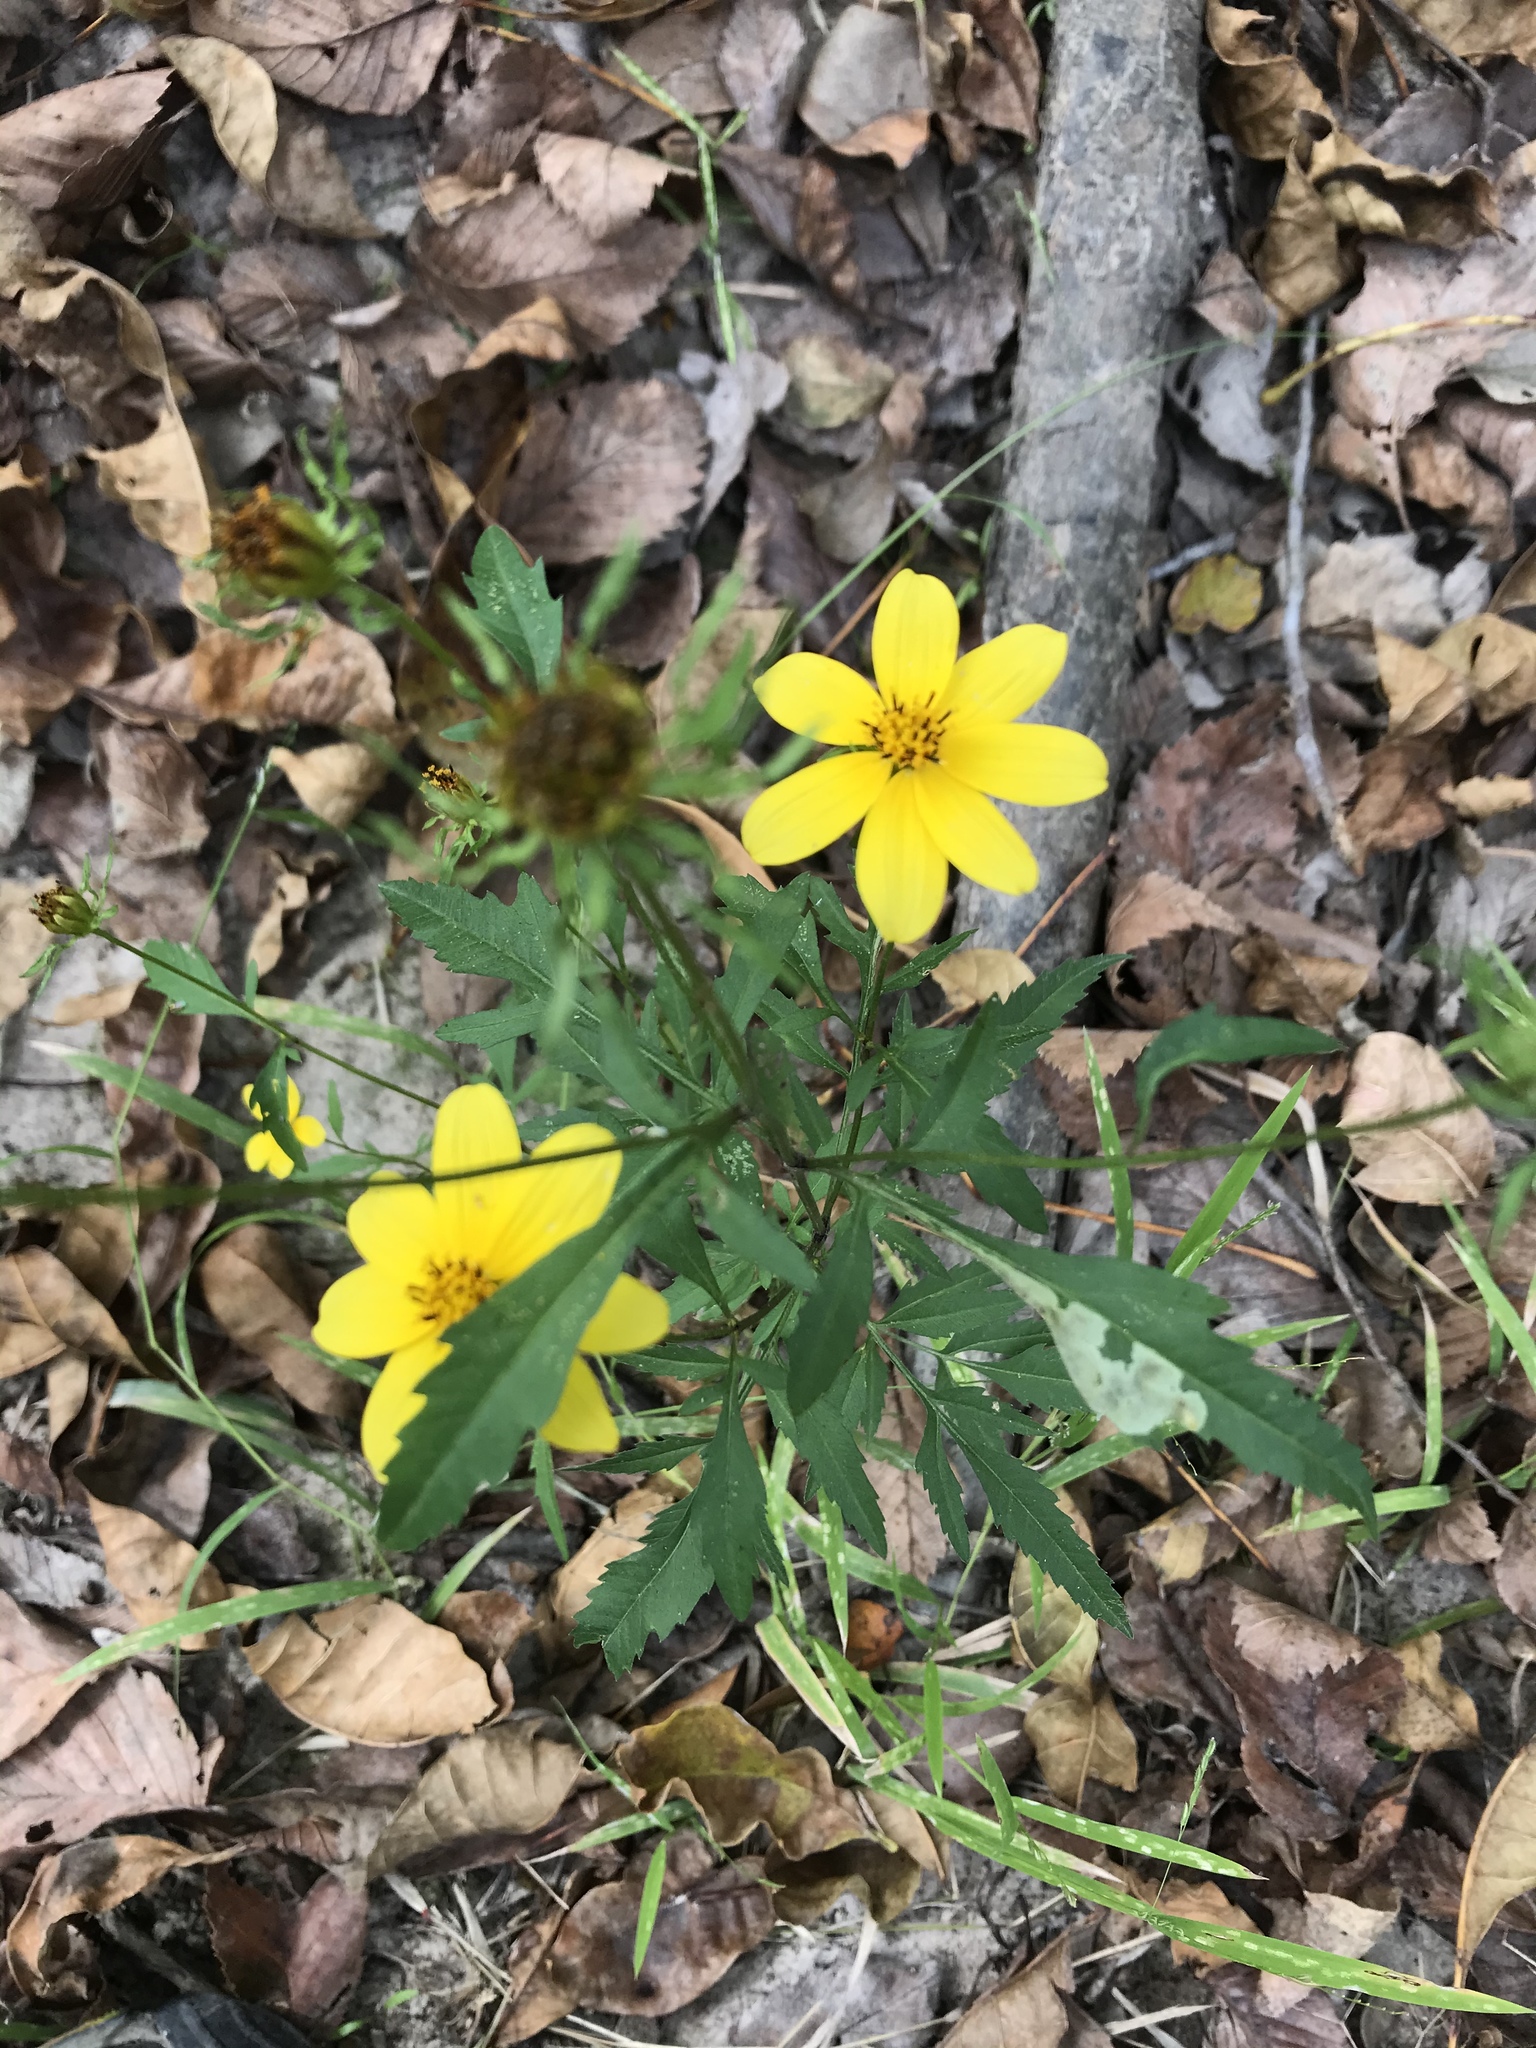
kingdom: Plantae
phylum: Tracheophyta
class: Magnoliopsida
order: Asterales
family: Asteraceae
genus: Bidens
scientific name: Bidens aristosa
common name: Western tickseed
